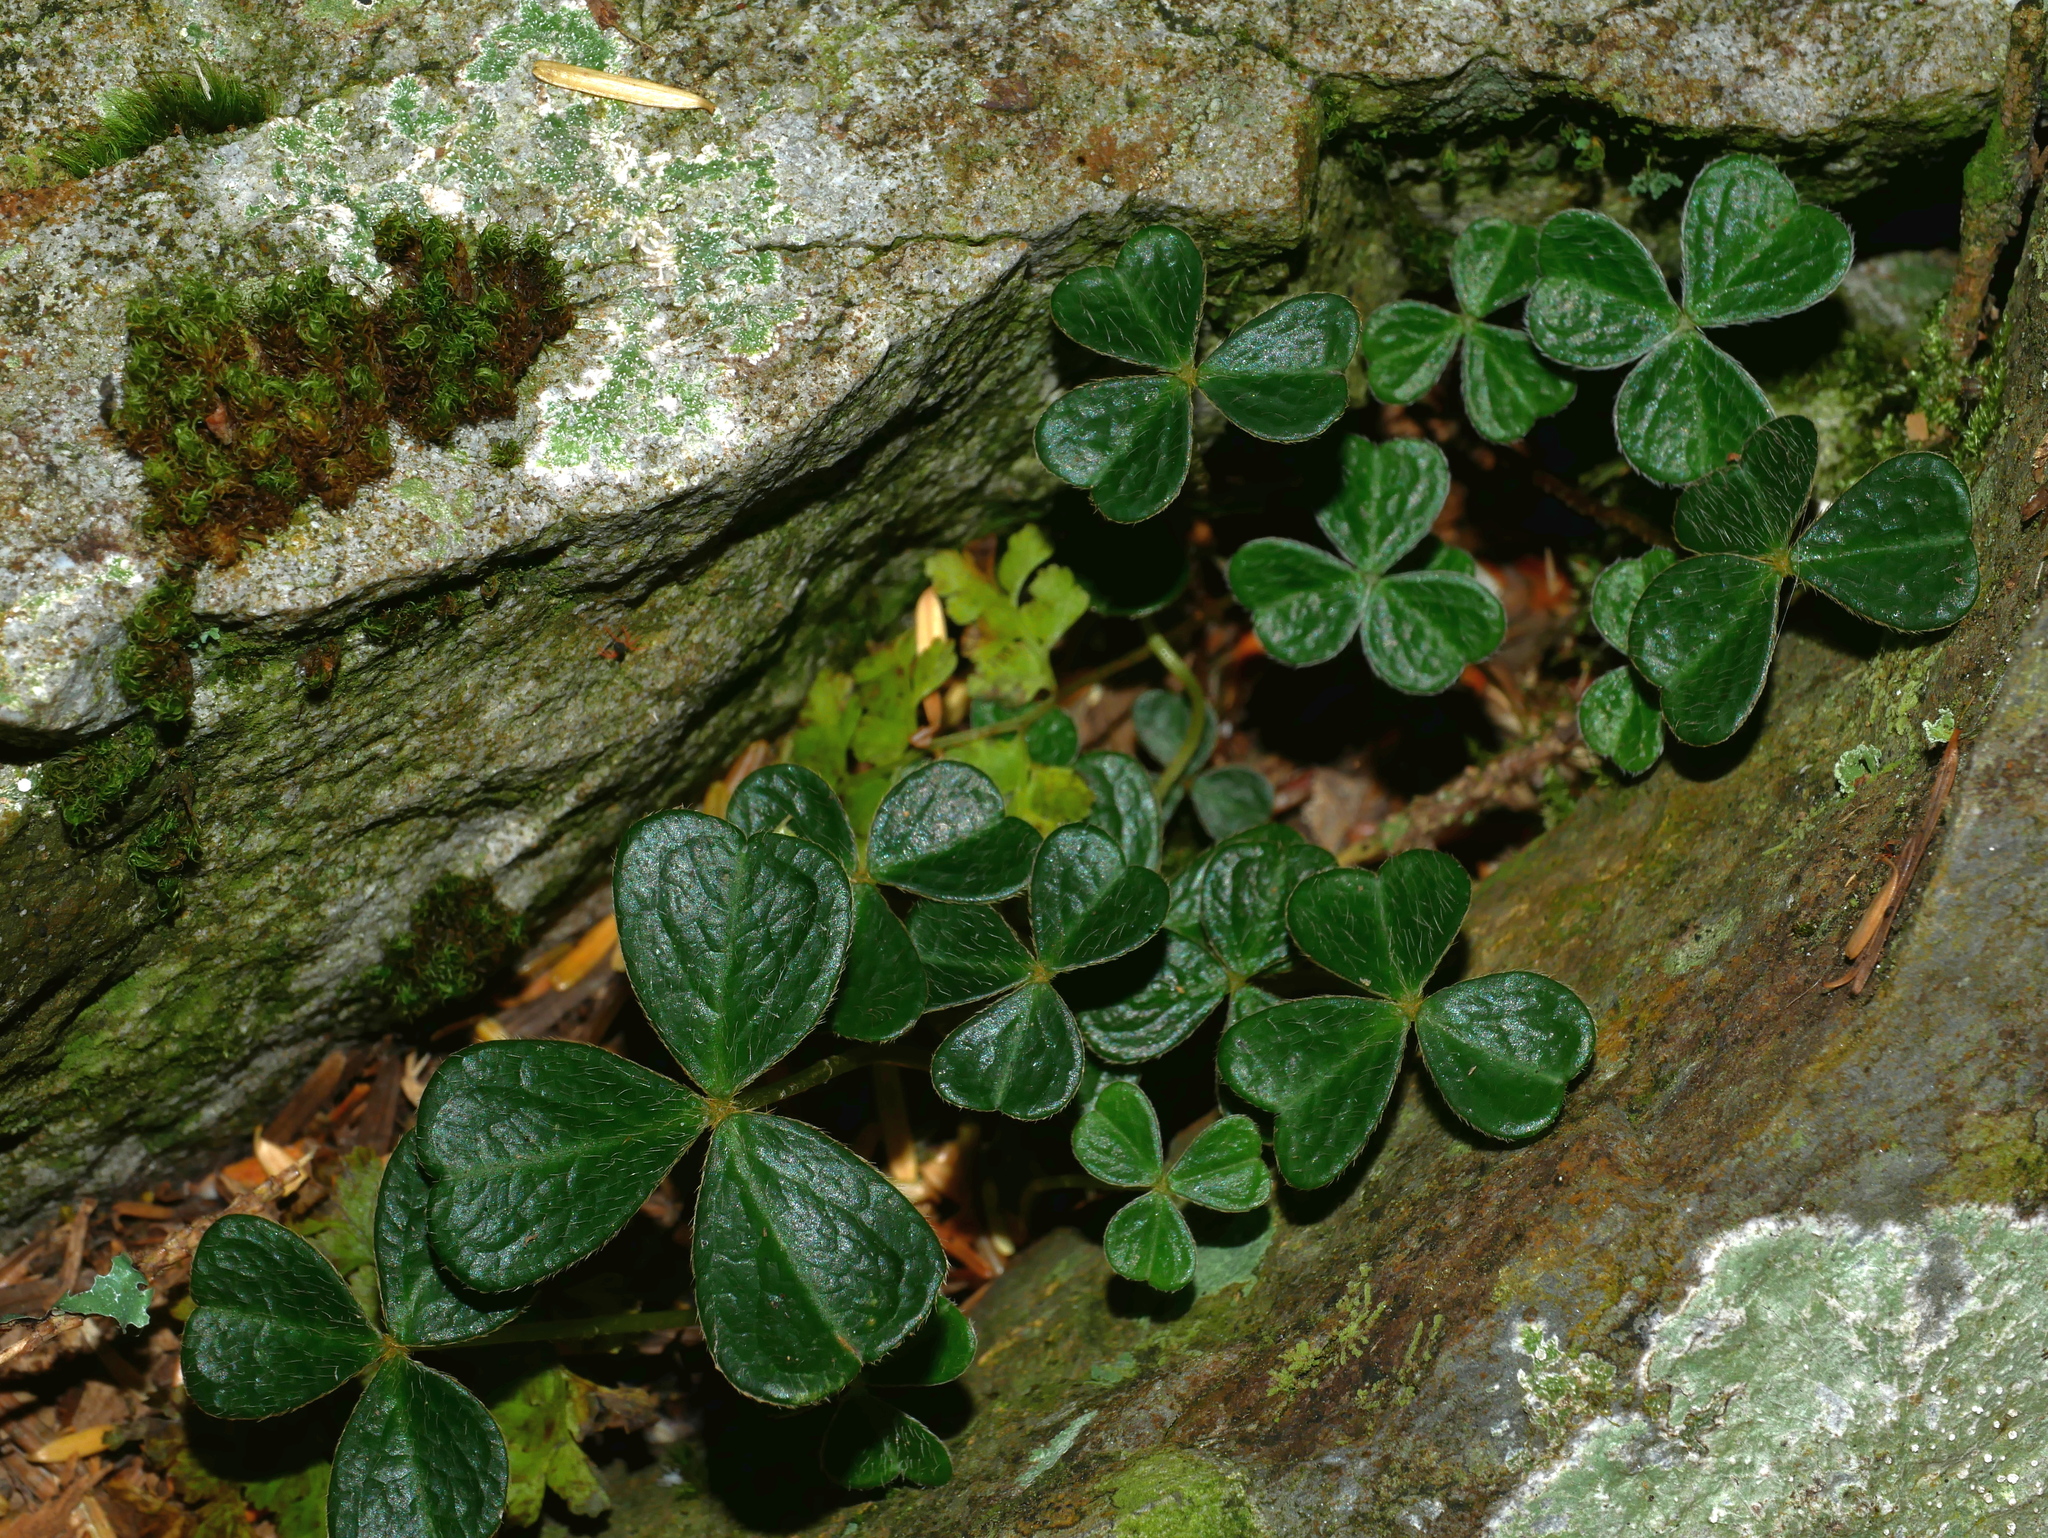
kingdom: Plantae
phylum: Tracheophyta
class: Magnoliopsida
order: Oxalidales
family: Oxalidaceae
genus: Oxalis
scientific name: Oxalis griffithii
